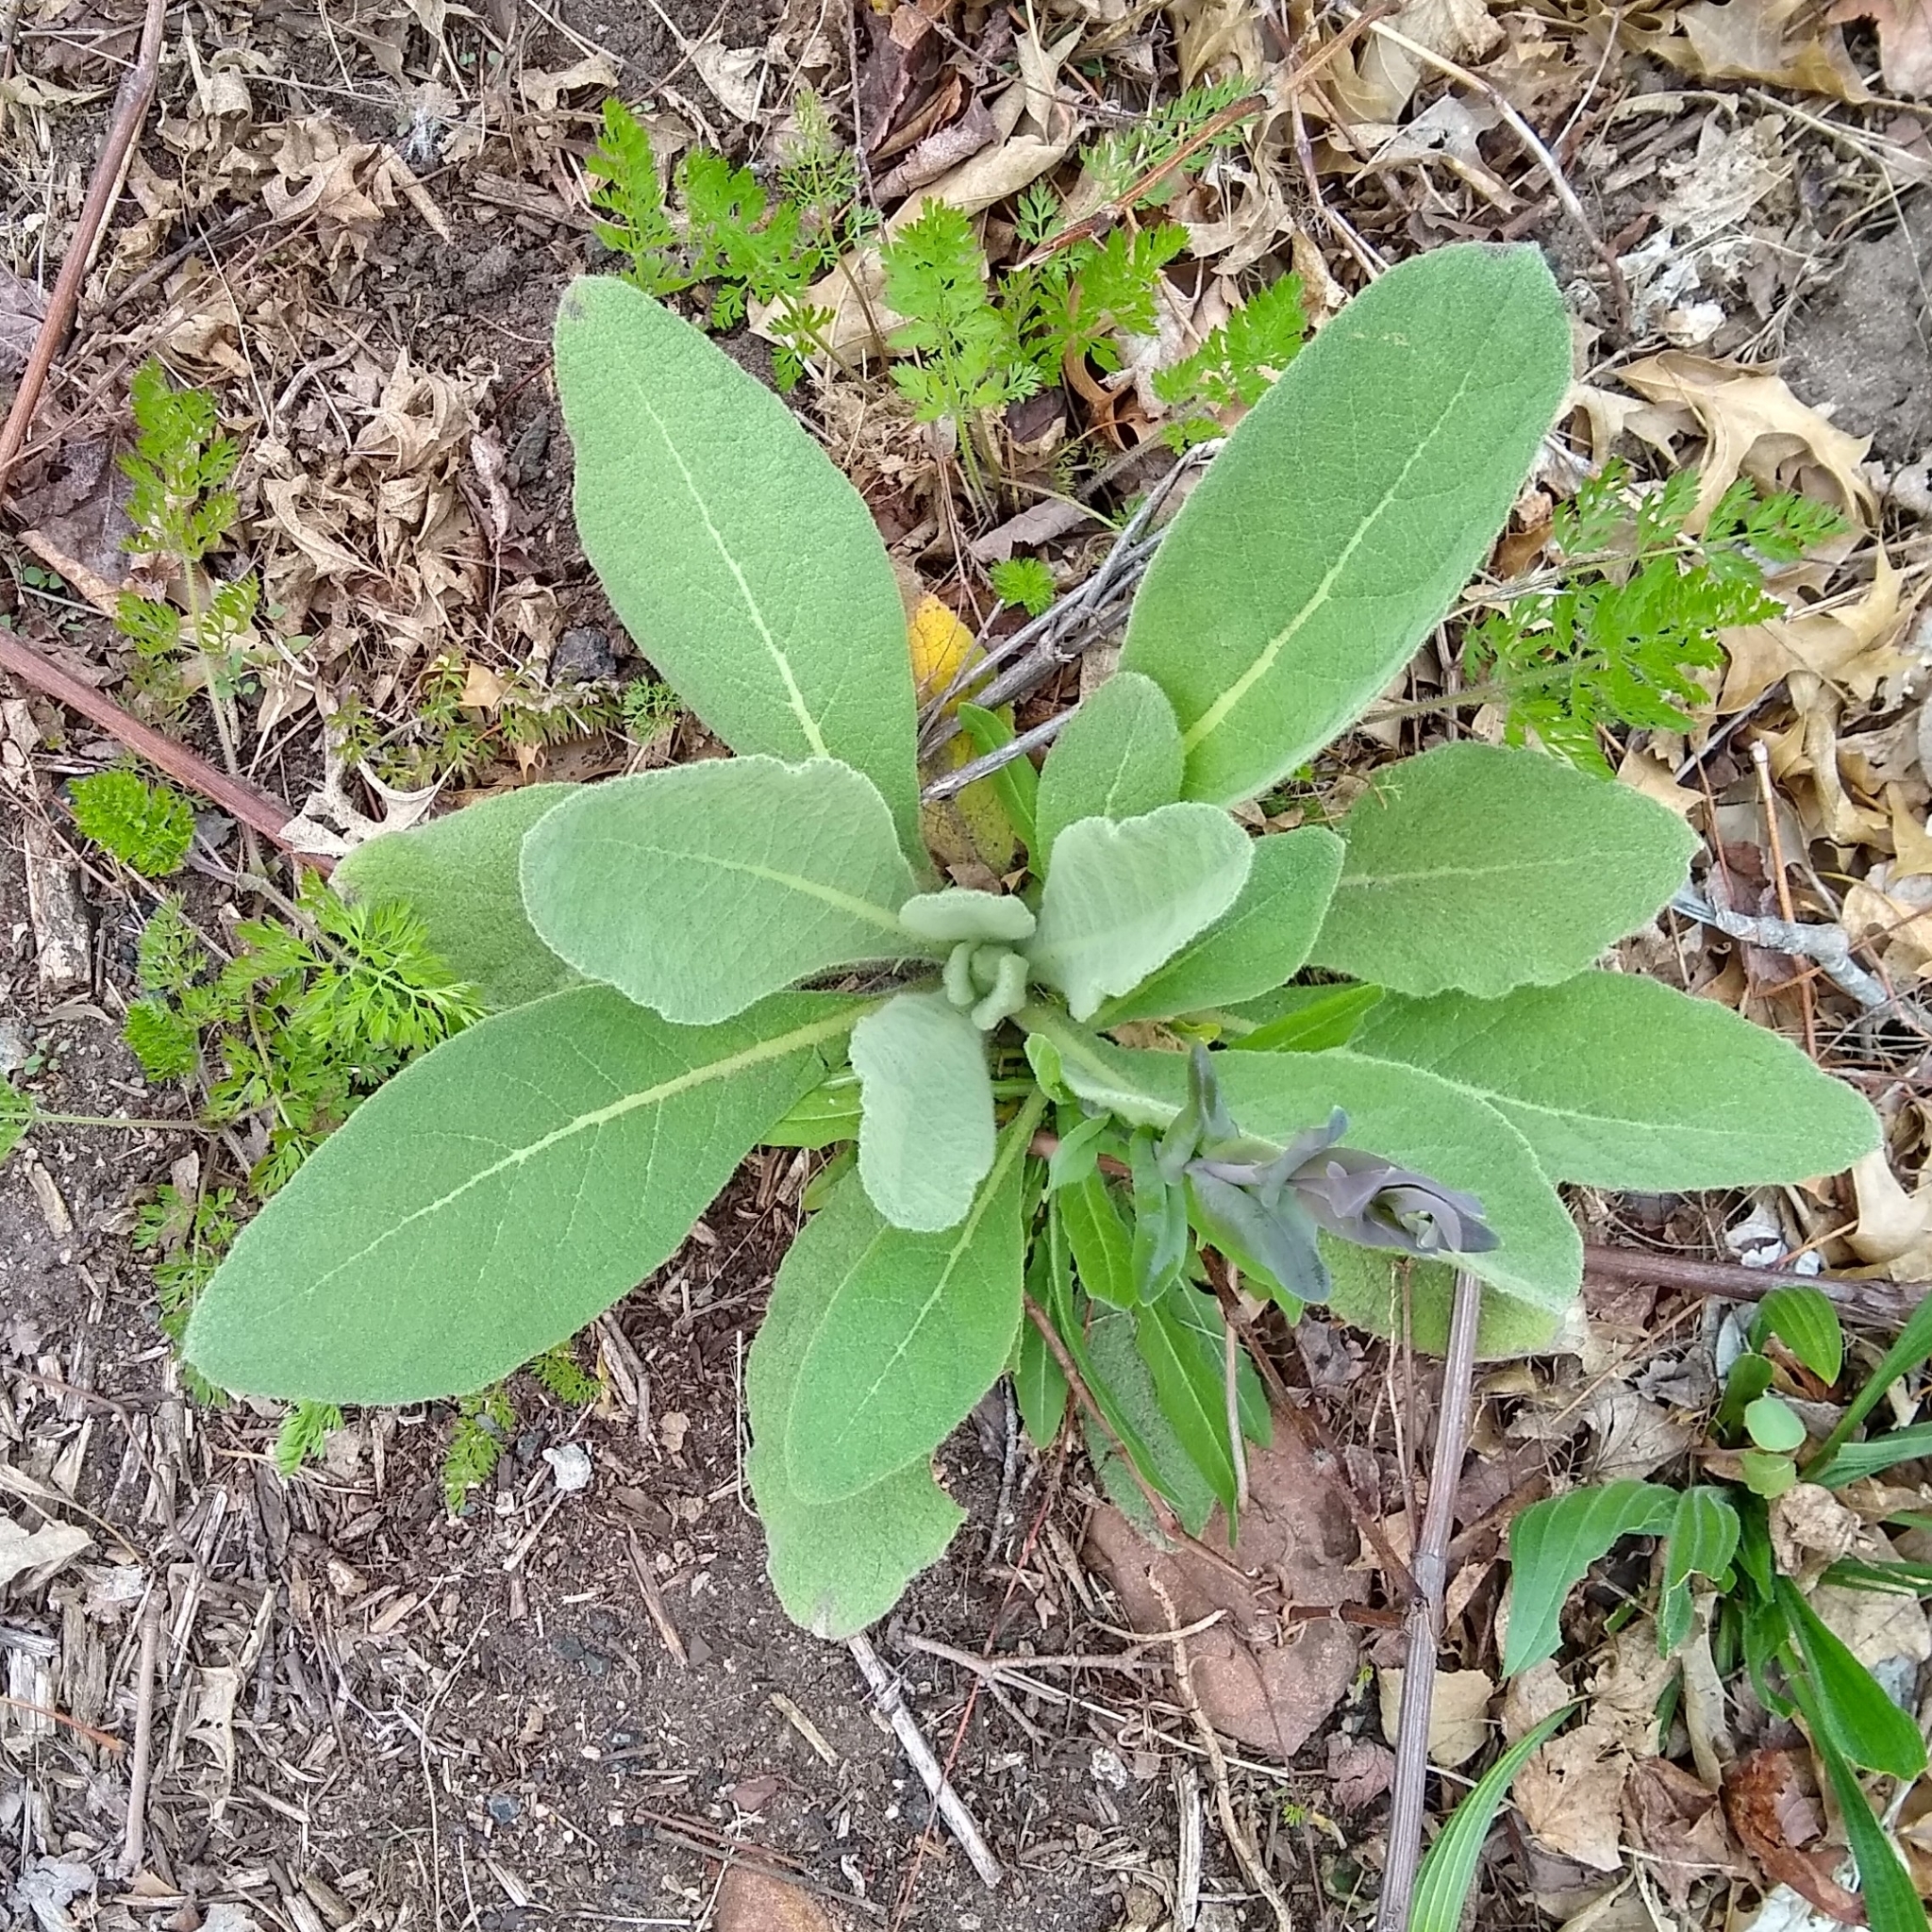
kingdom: Plantae
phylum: Tracheophyta
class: Magnoliopsida
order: Lamiales
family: Scrophulariaceae
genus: Verbascum
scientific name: Verbascum thapsus
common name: Common mullein
